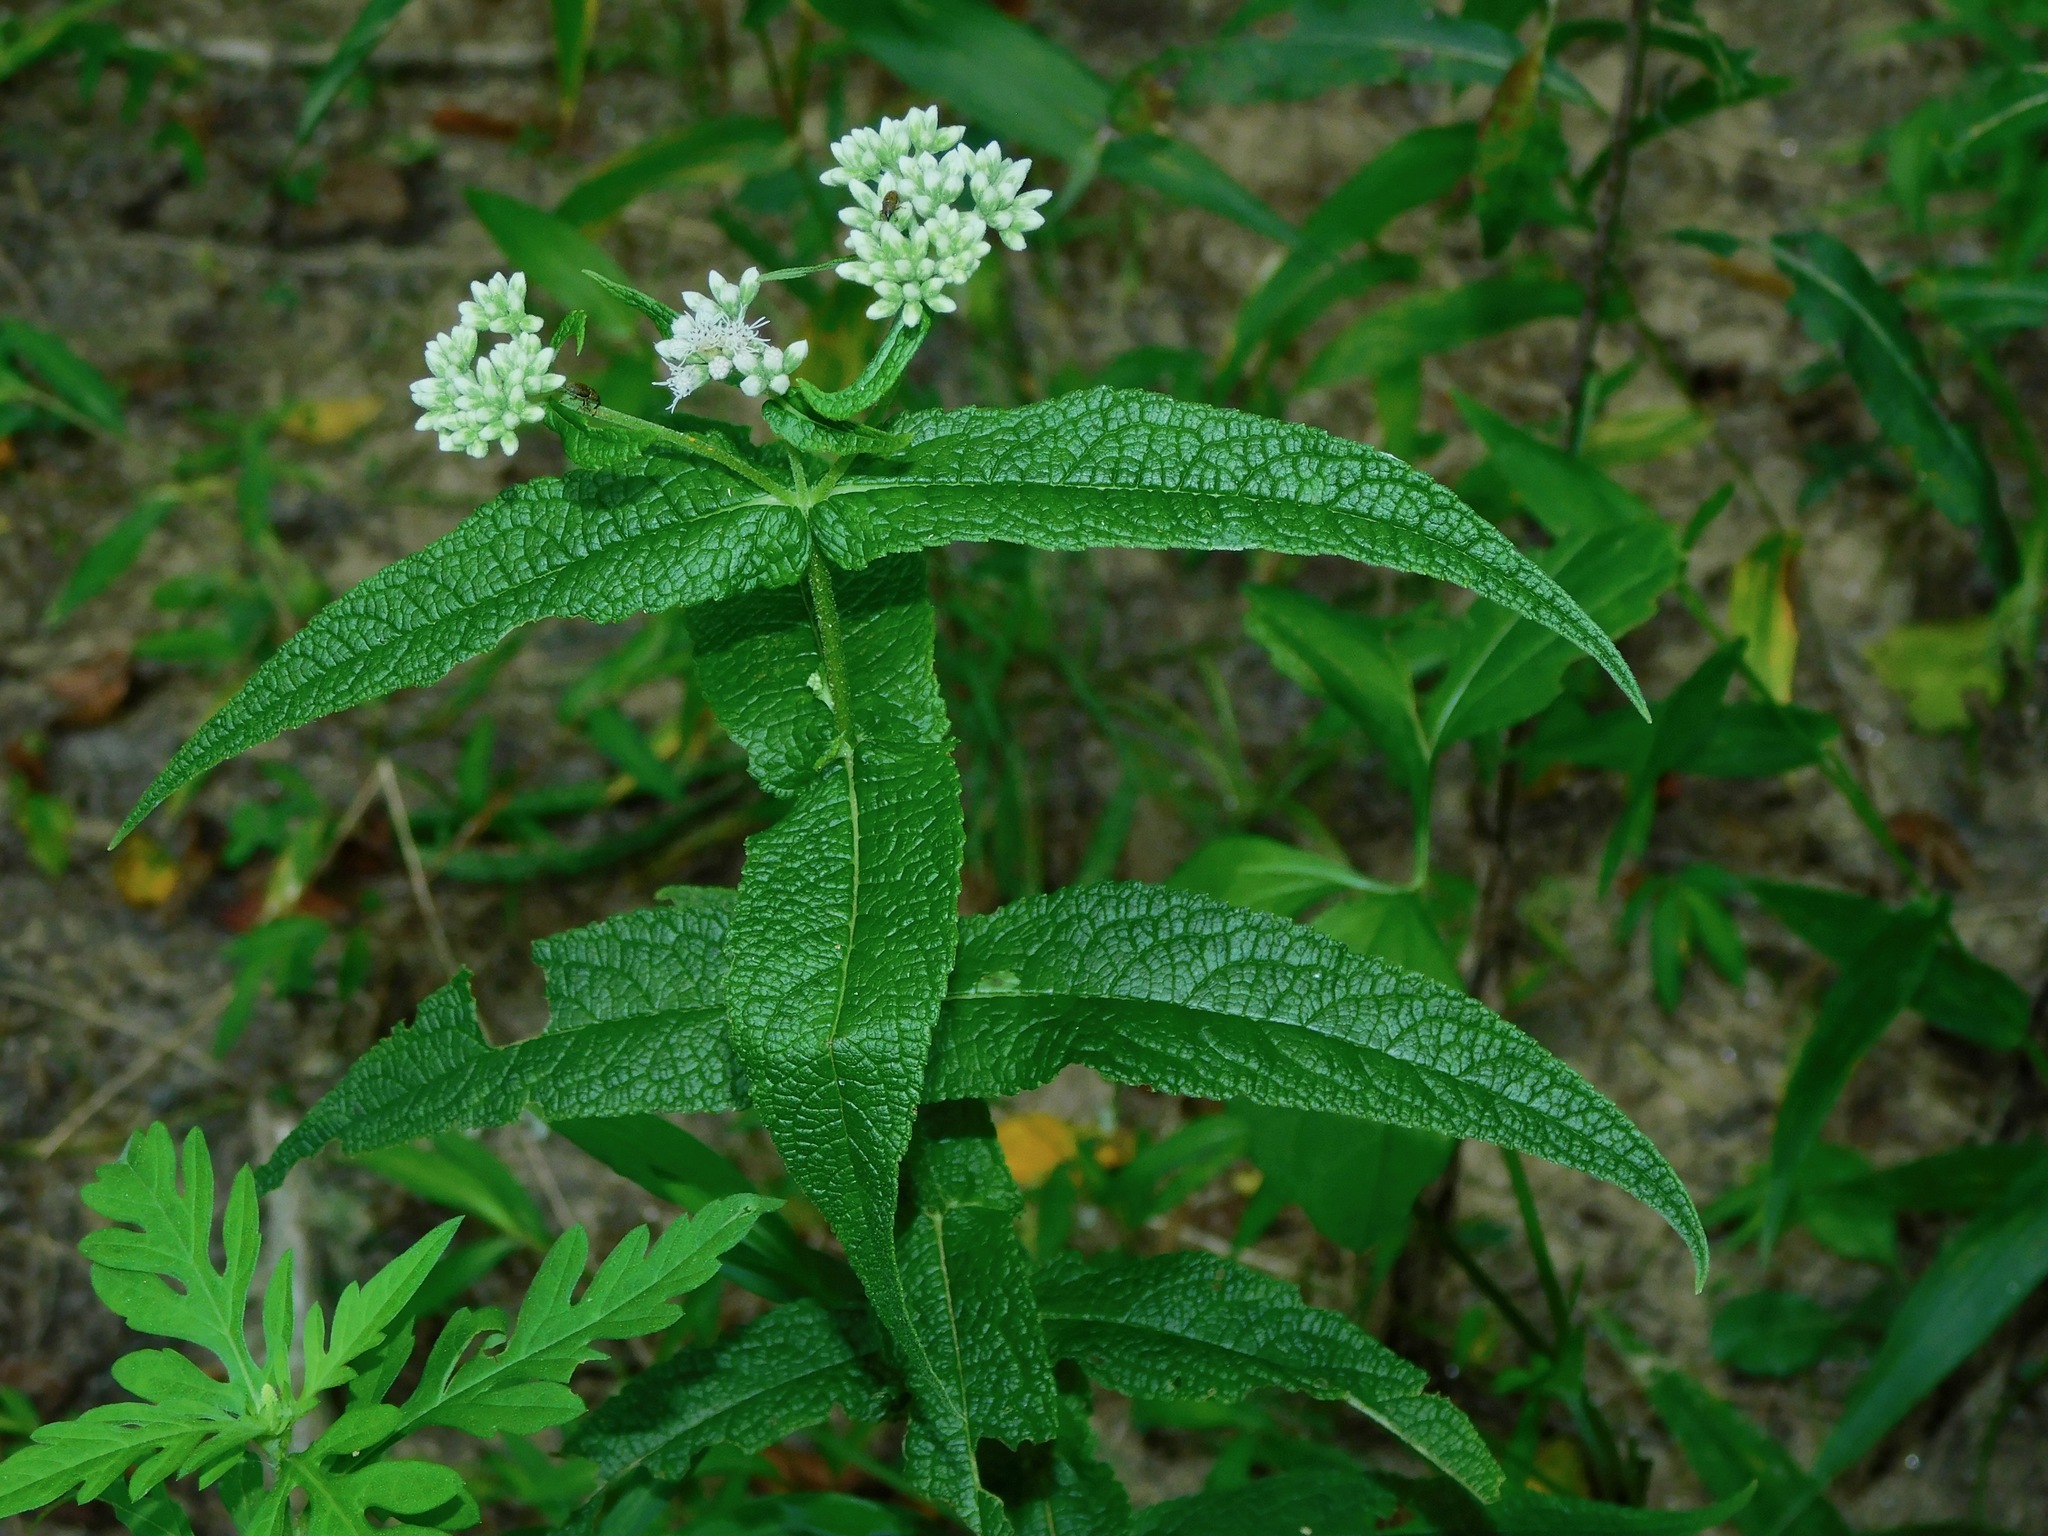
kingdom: Plantae
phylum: Tracheophyta
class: Magnoliopsida
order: Asterales
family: Asteraceae
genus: Eupatorium
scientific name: Eupatorium perfoliatum
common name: Boneset
